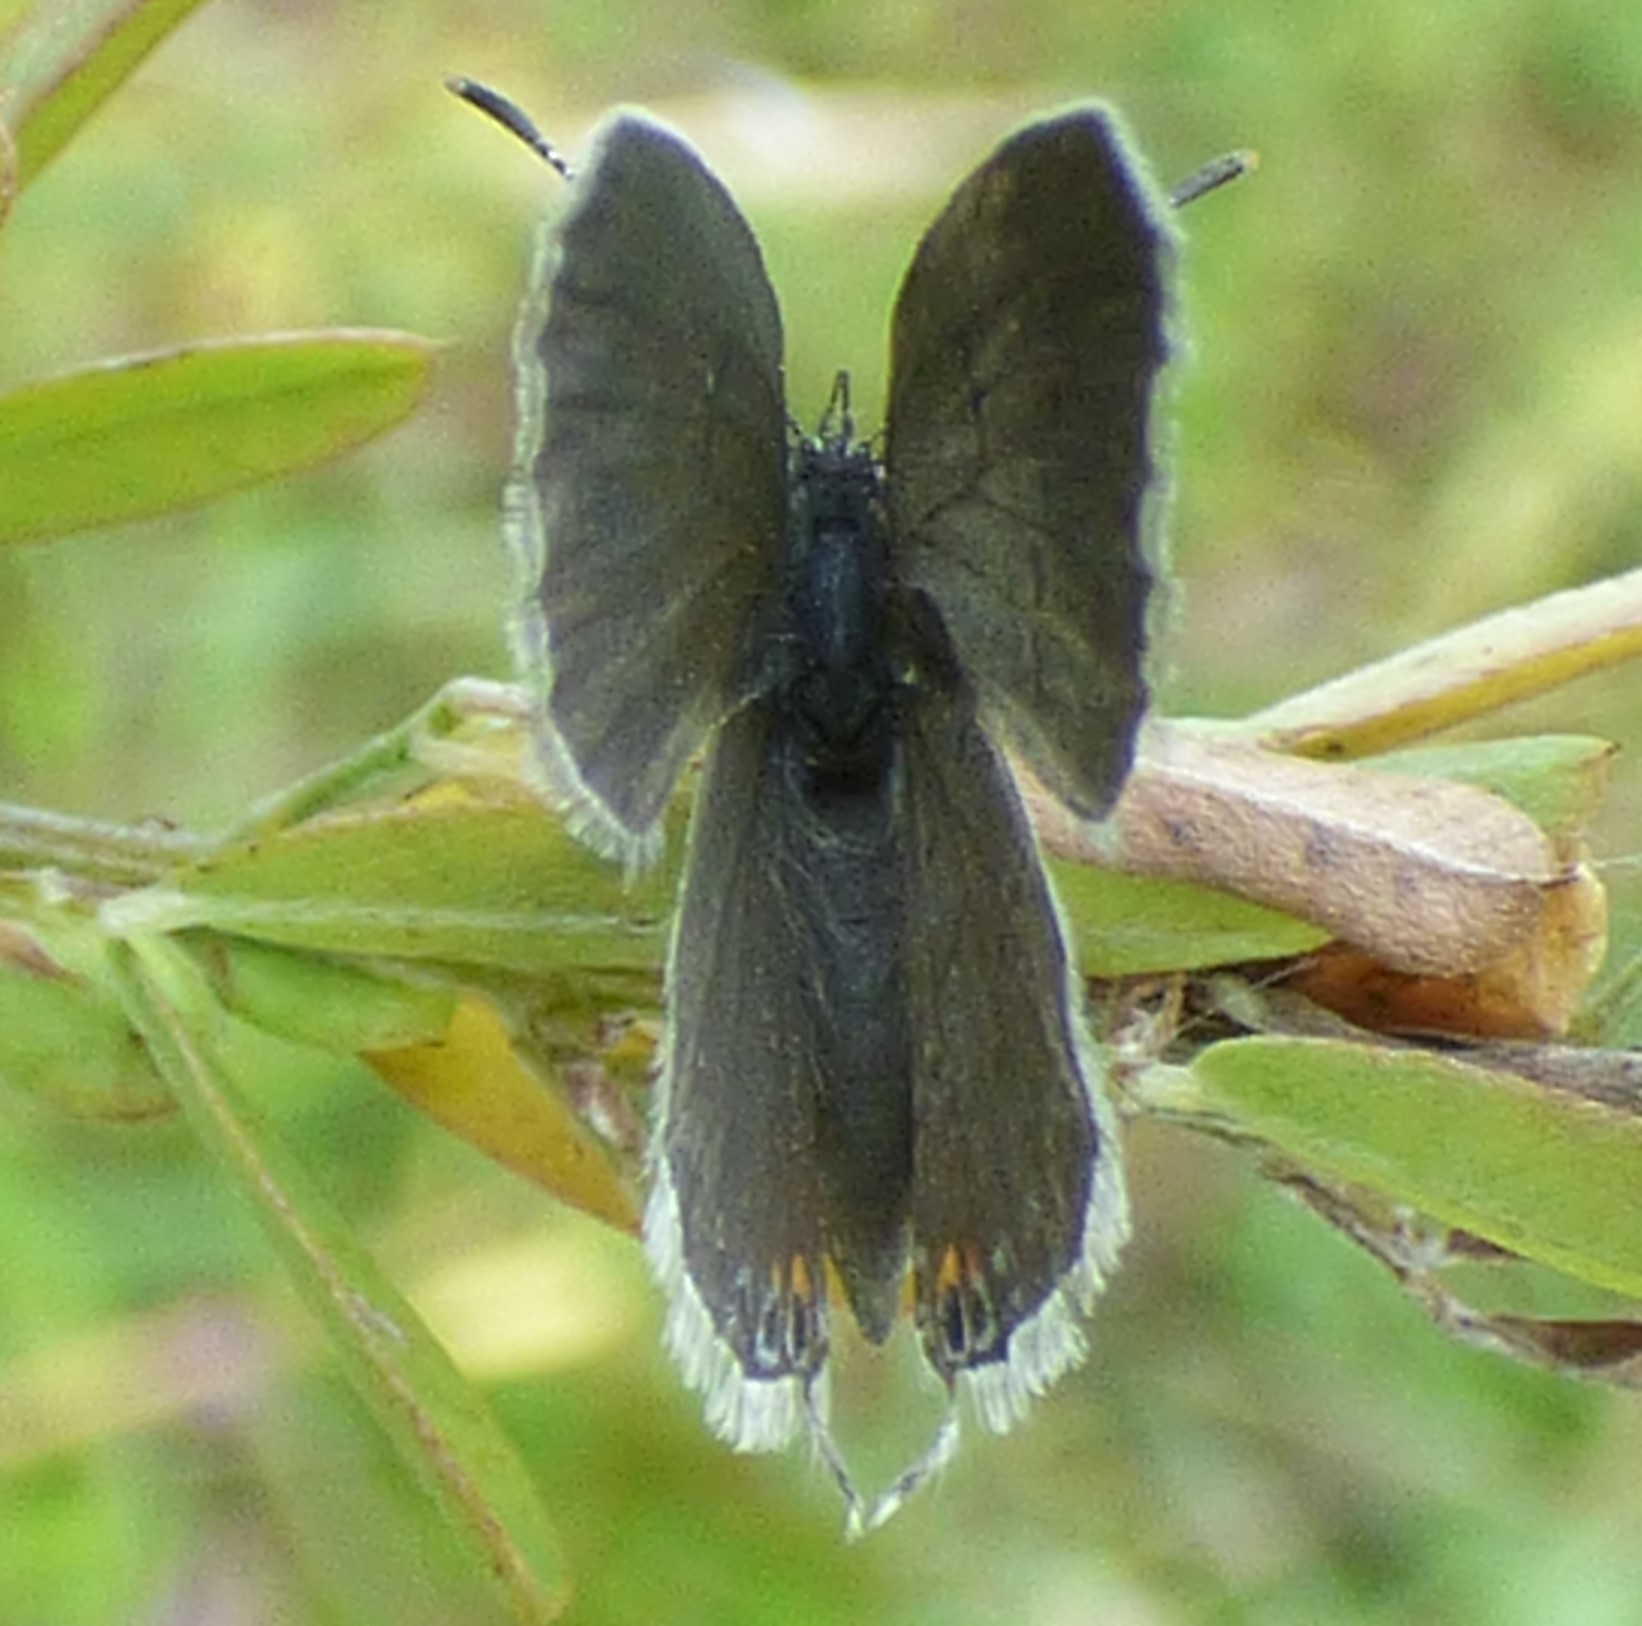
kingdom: Animalia
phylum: Arthropoda
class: Insecta
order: Lepidoptera
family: Lycaenidae
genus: Elkalyce
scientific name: Elkalyce comyntas
